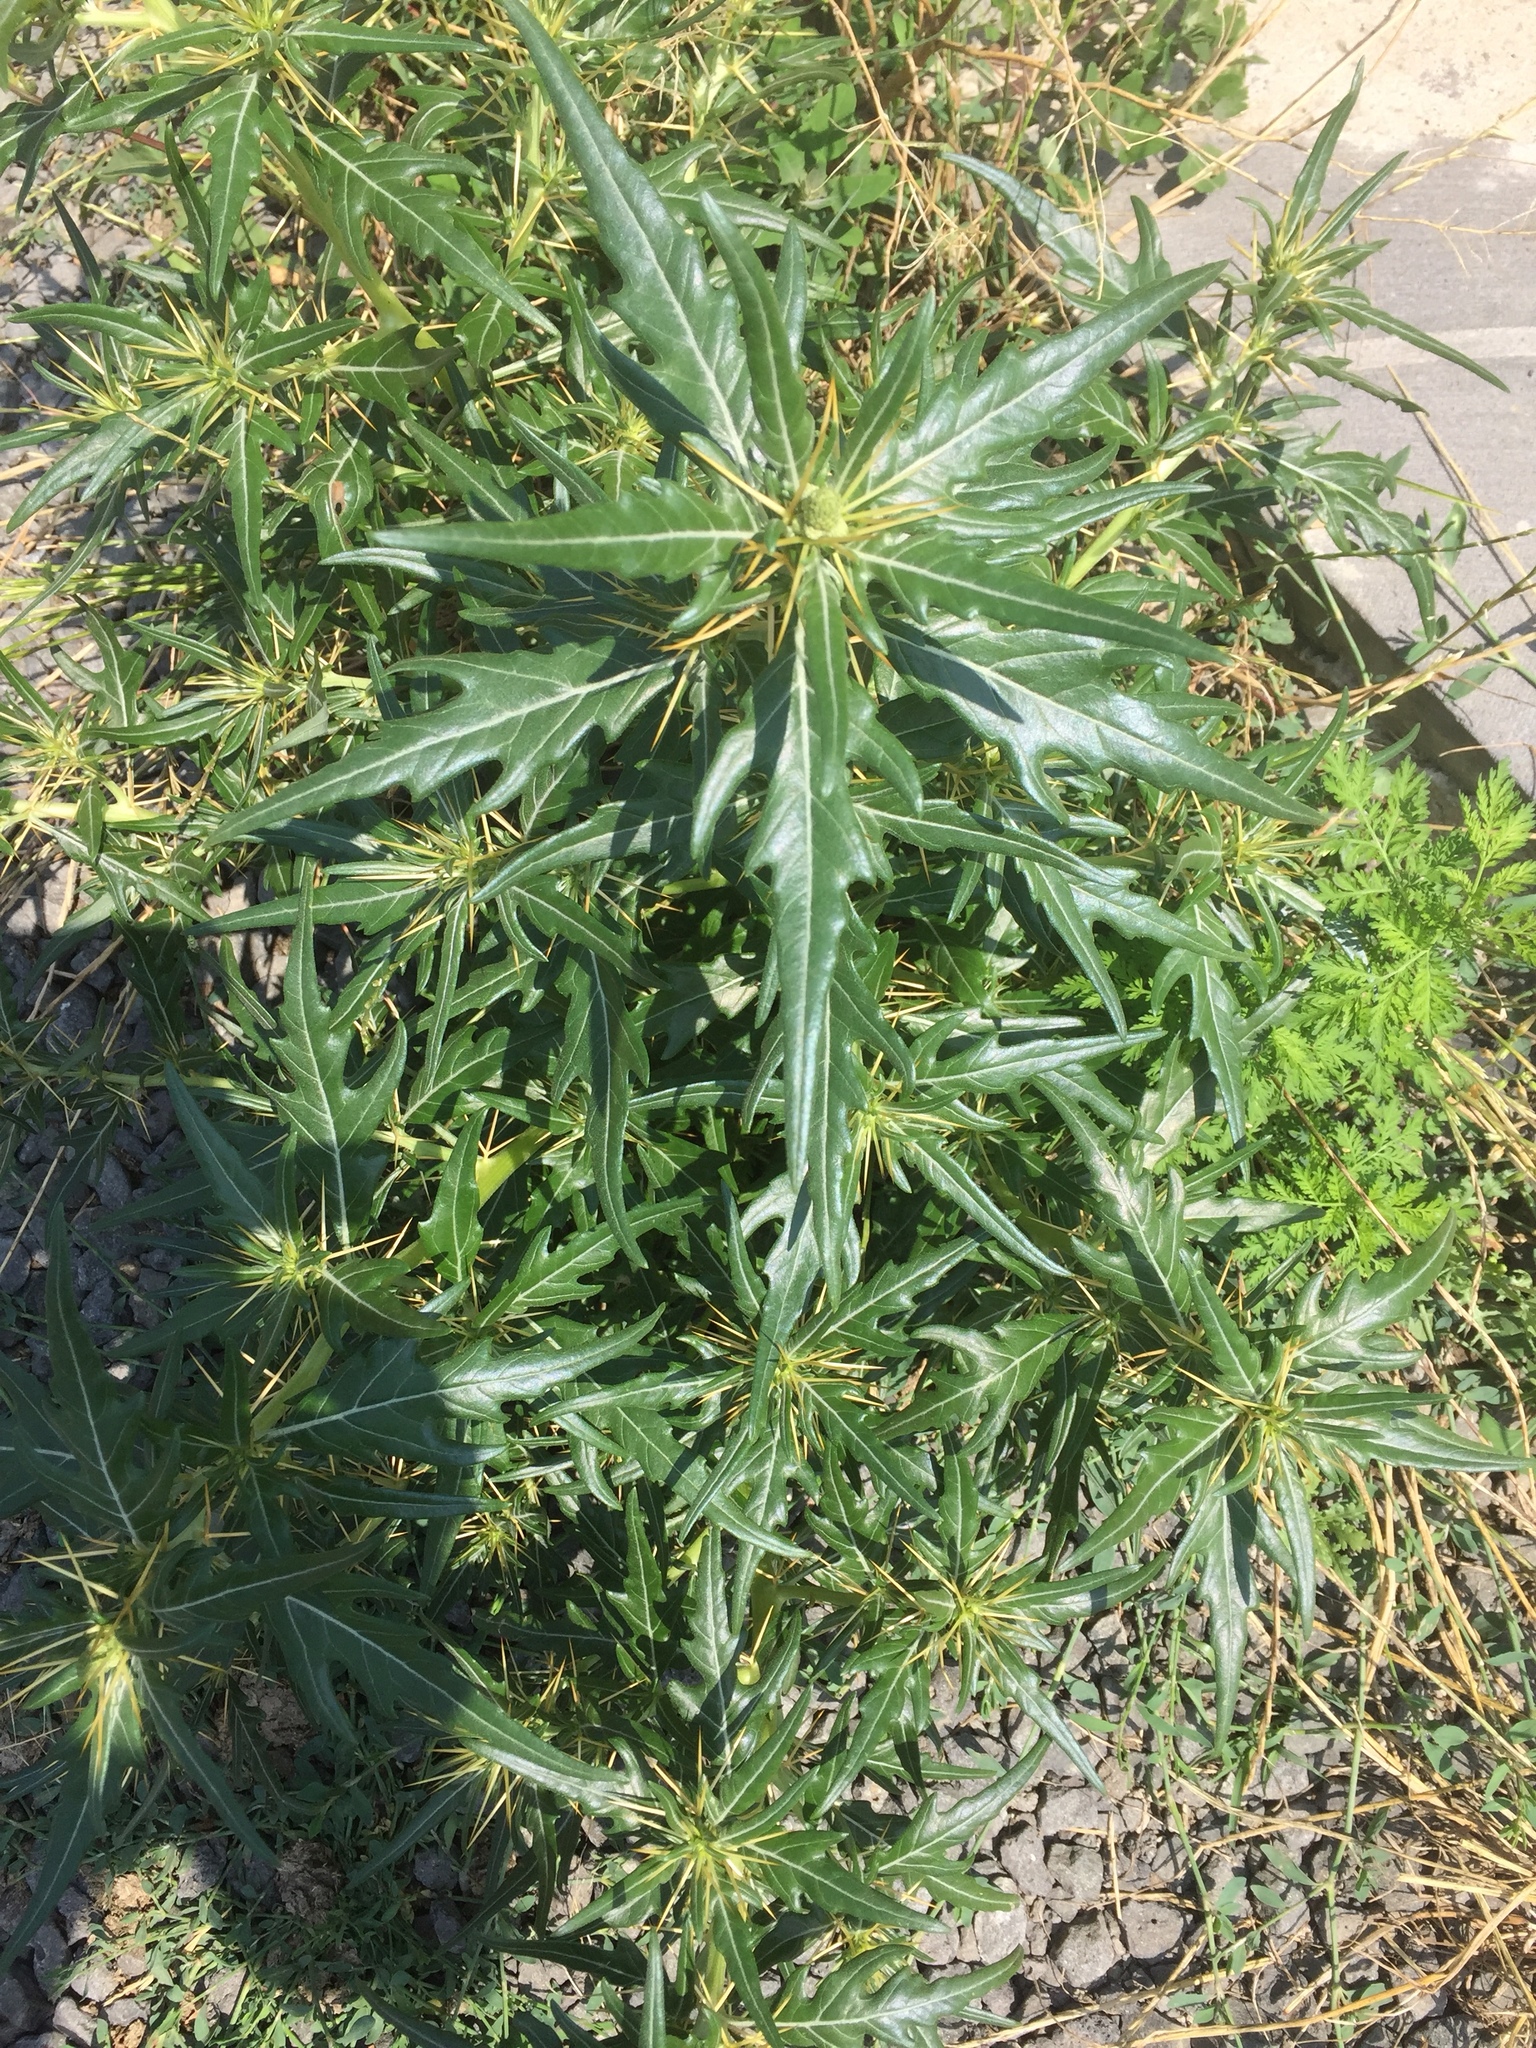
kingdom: Plantae
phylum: Tracheophyta
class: Magnoliopsida
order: Asterales
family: Asteraceae
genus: Xanthium
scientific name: Xanthium spinosum
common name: Spiny cocklebur
